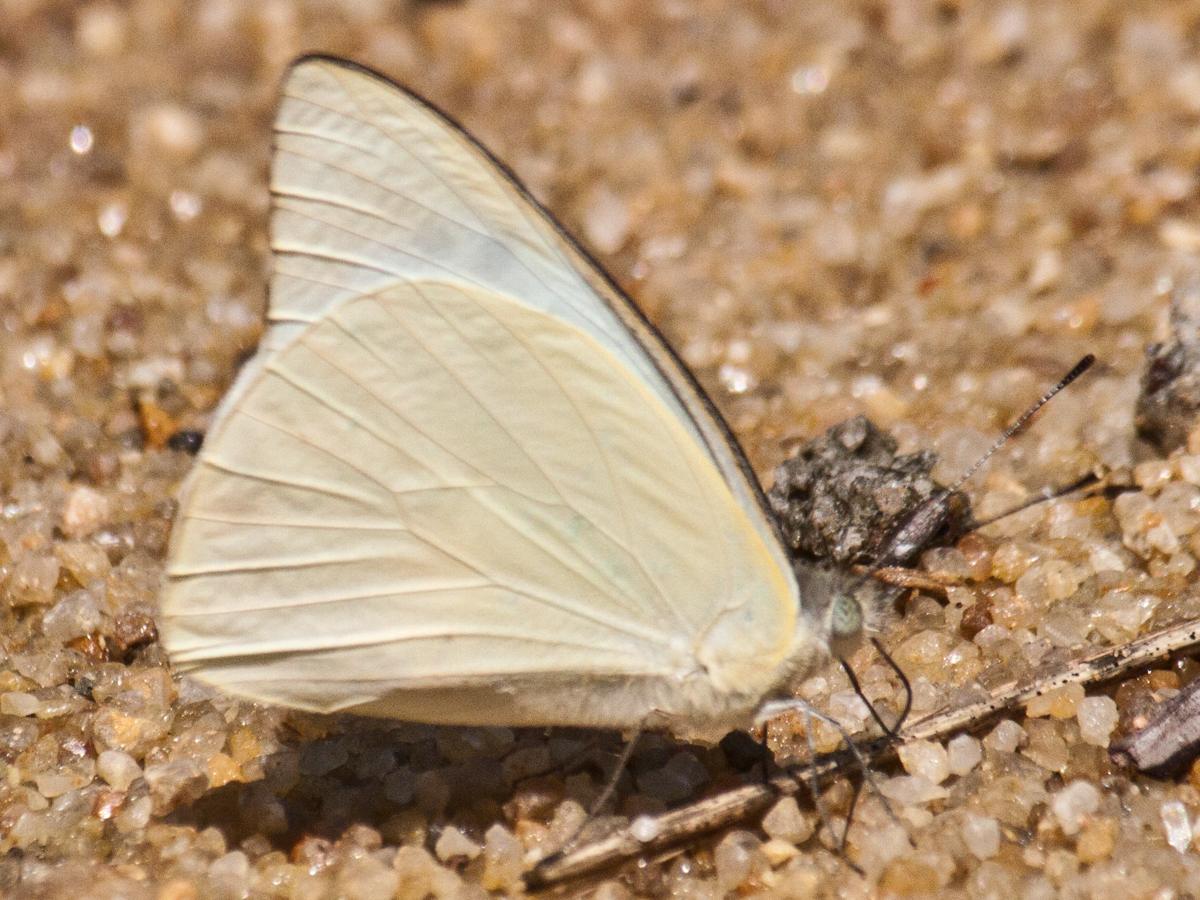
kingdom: Animalia
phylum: Arthropoda
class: Insecta
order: Lepidoptera
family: Pieridae
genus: Appias
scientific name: Appias albina
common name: Common albatross
